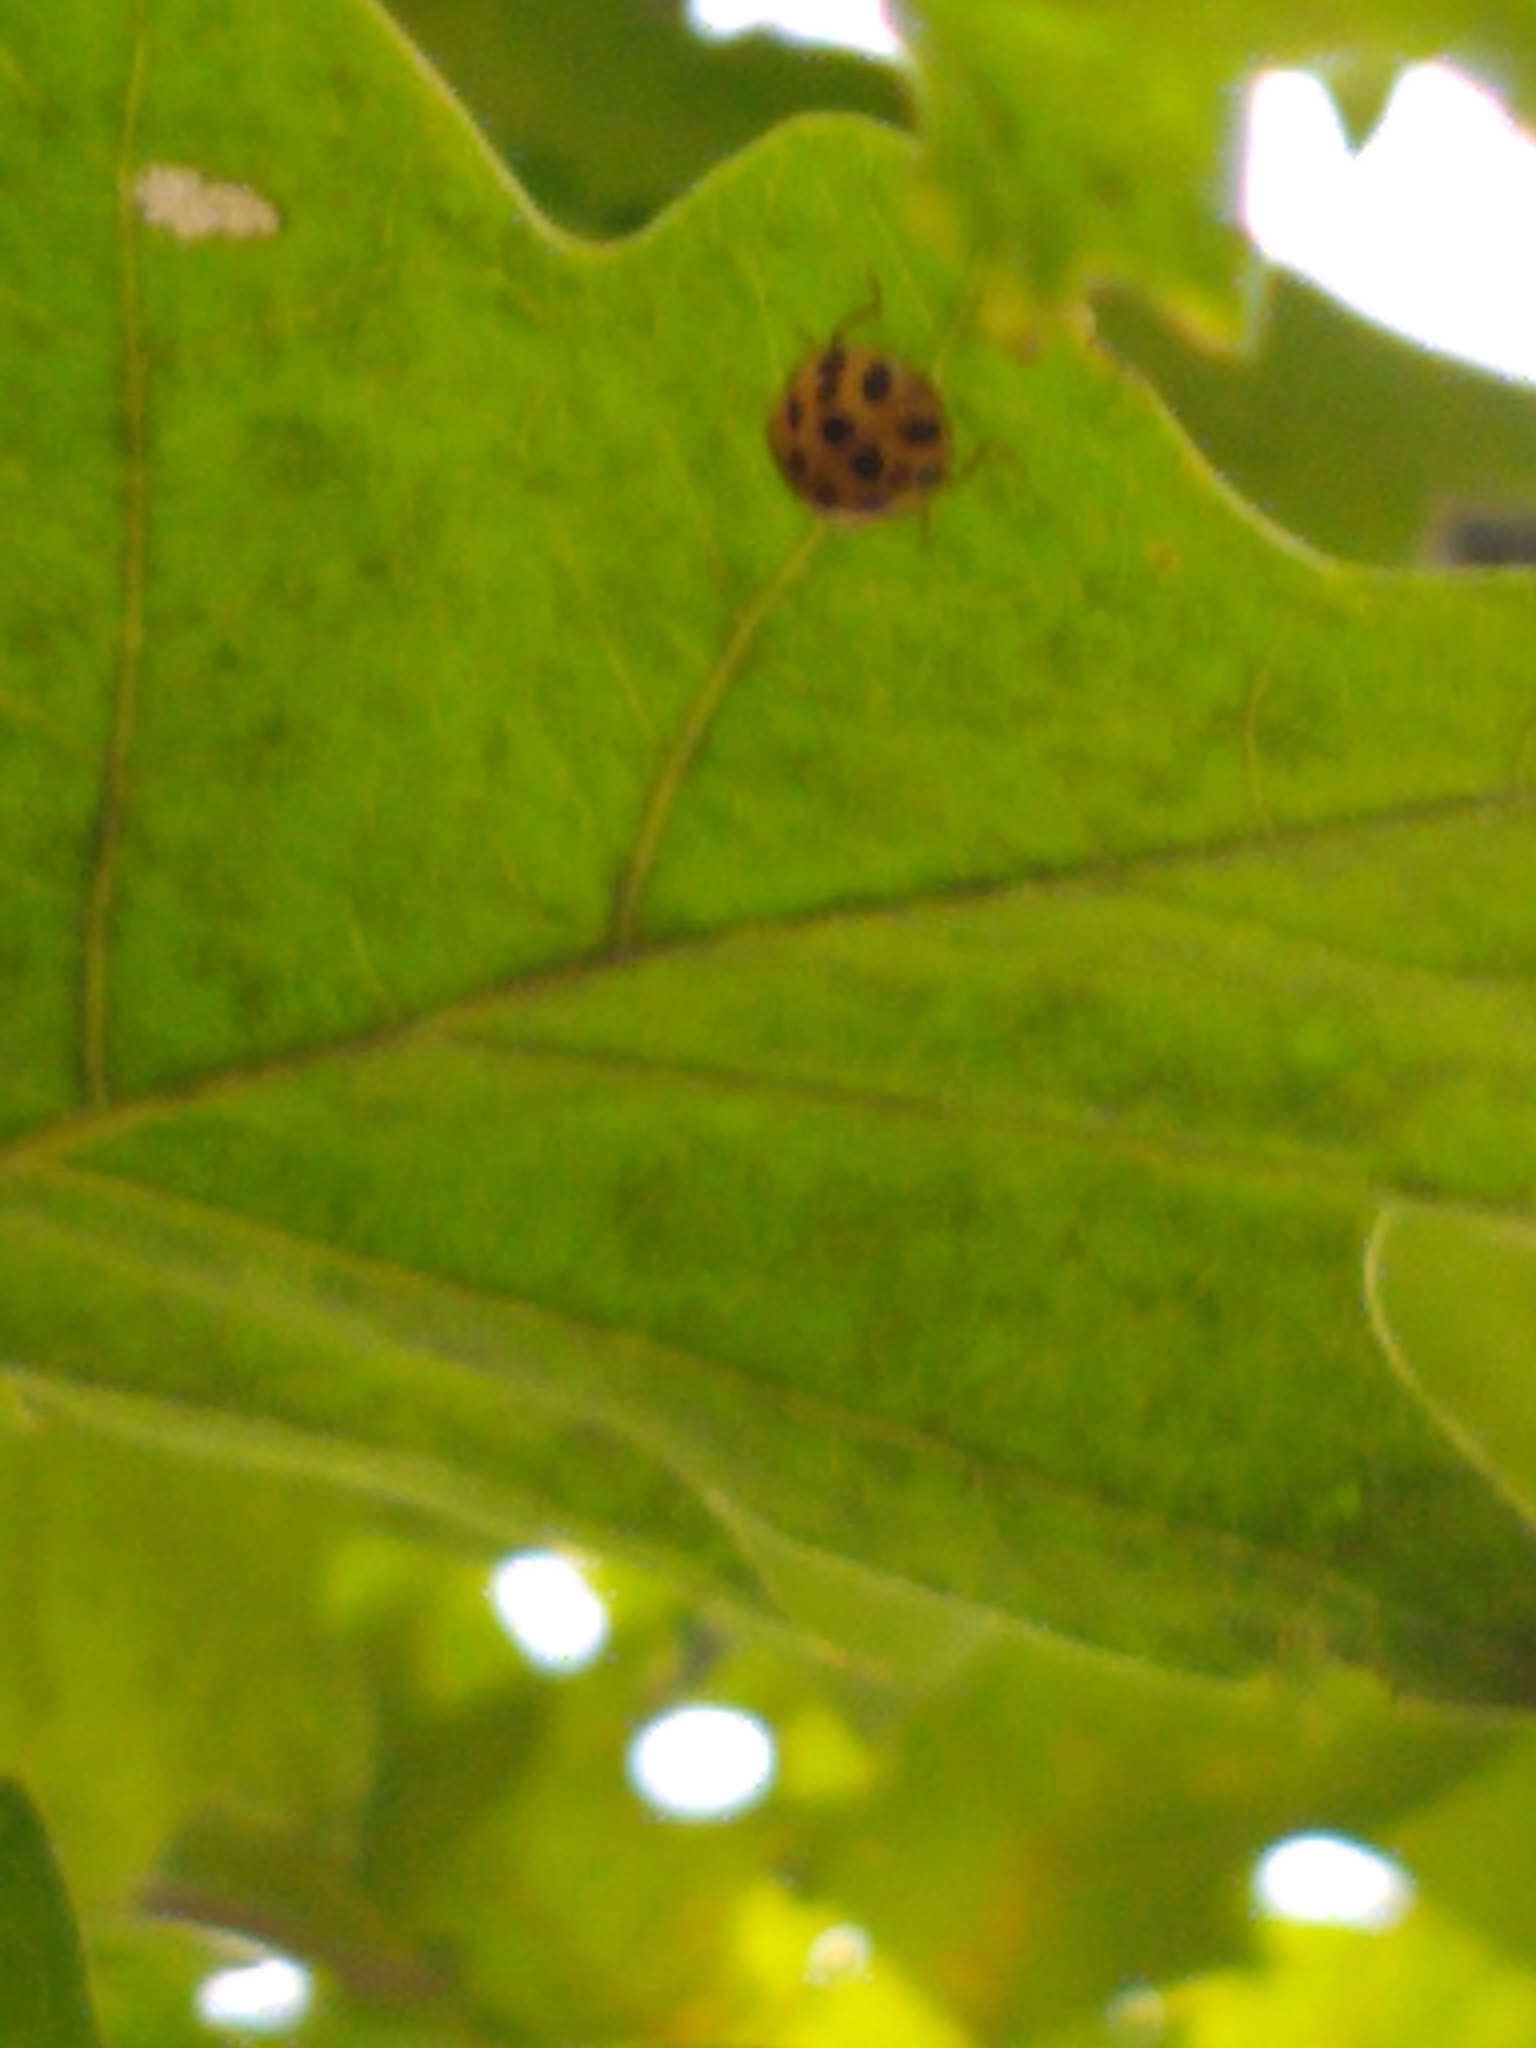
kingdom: Animalia
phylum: Arthropoda
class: Insecta
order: Coleoptera
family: Coccinellidae
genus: Harmonia
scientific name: Harmonia axyridis
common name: Harlequin ladybird
